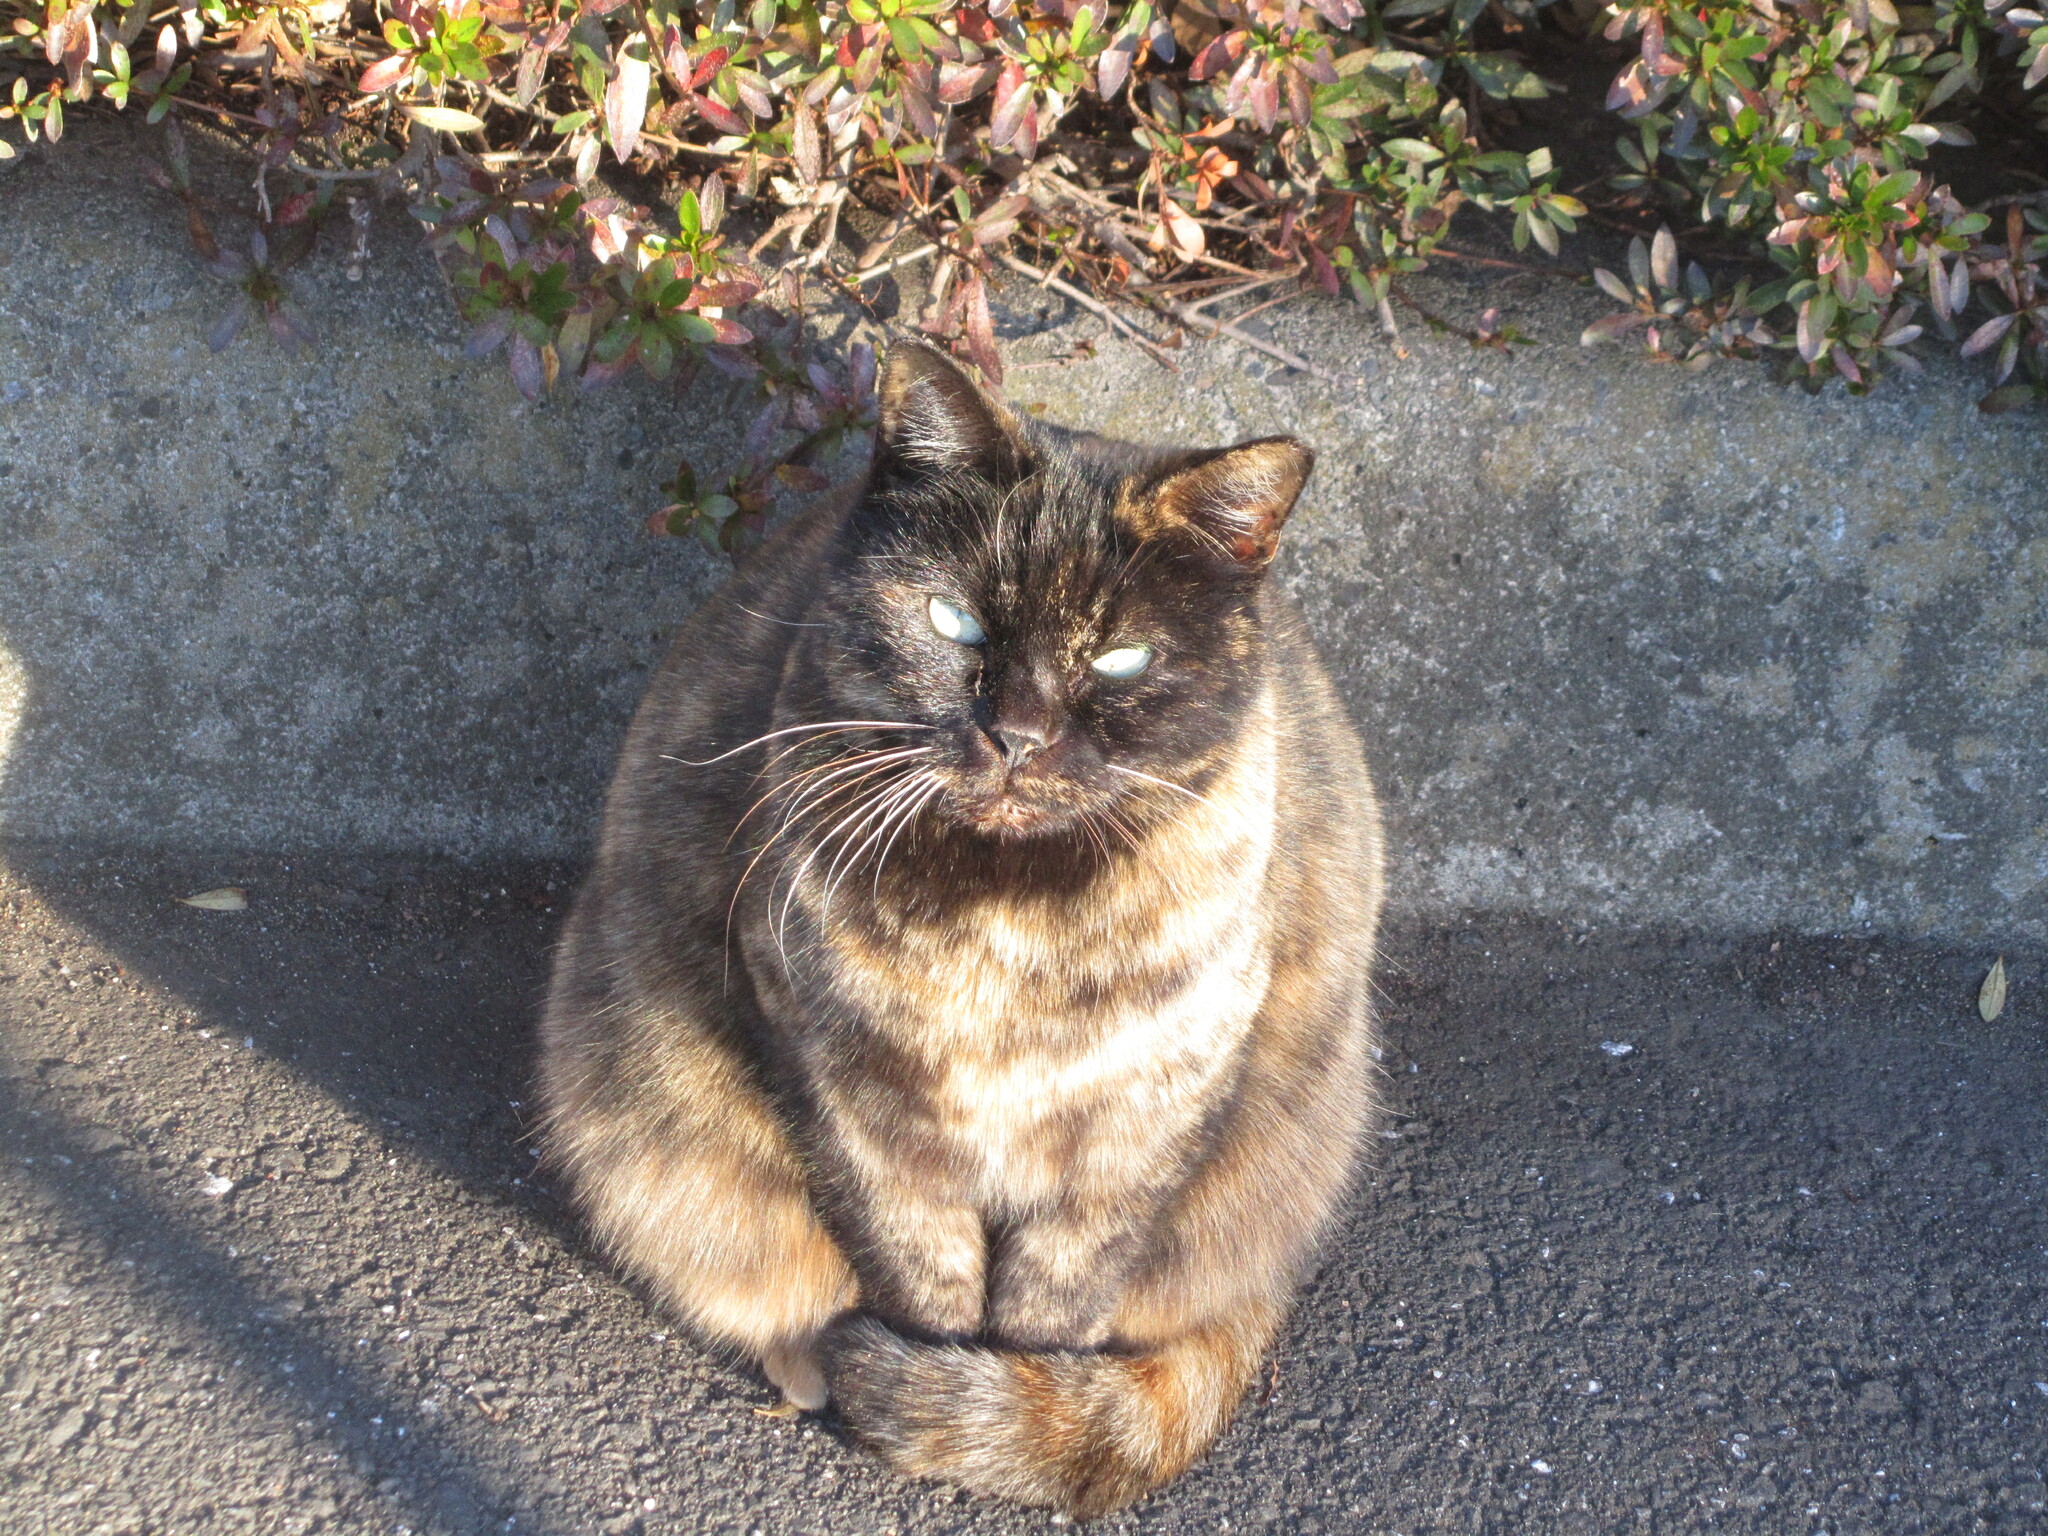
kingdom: Animalia
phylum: Chordata
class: Mammalia
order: Carnivora
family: Felidae
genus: Felis
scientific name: Felis catus
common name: Domestic cat
